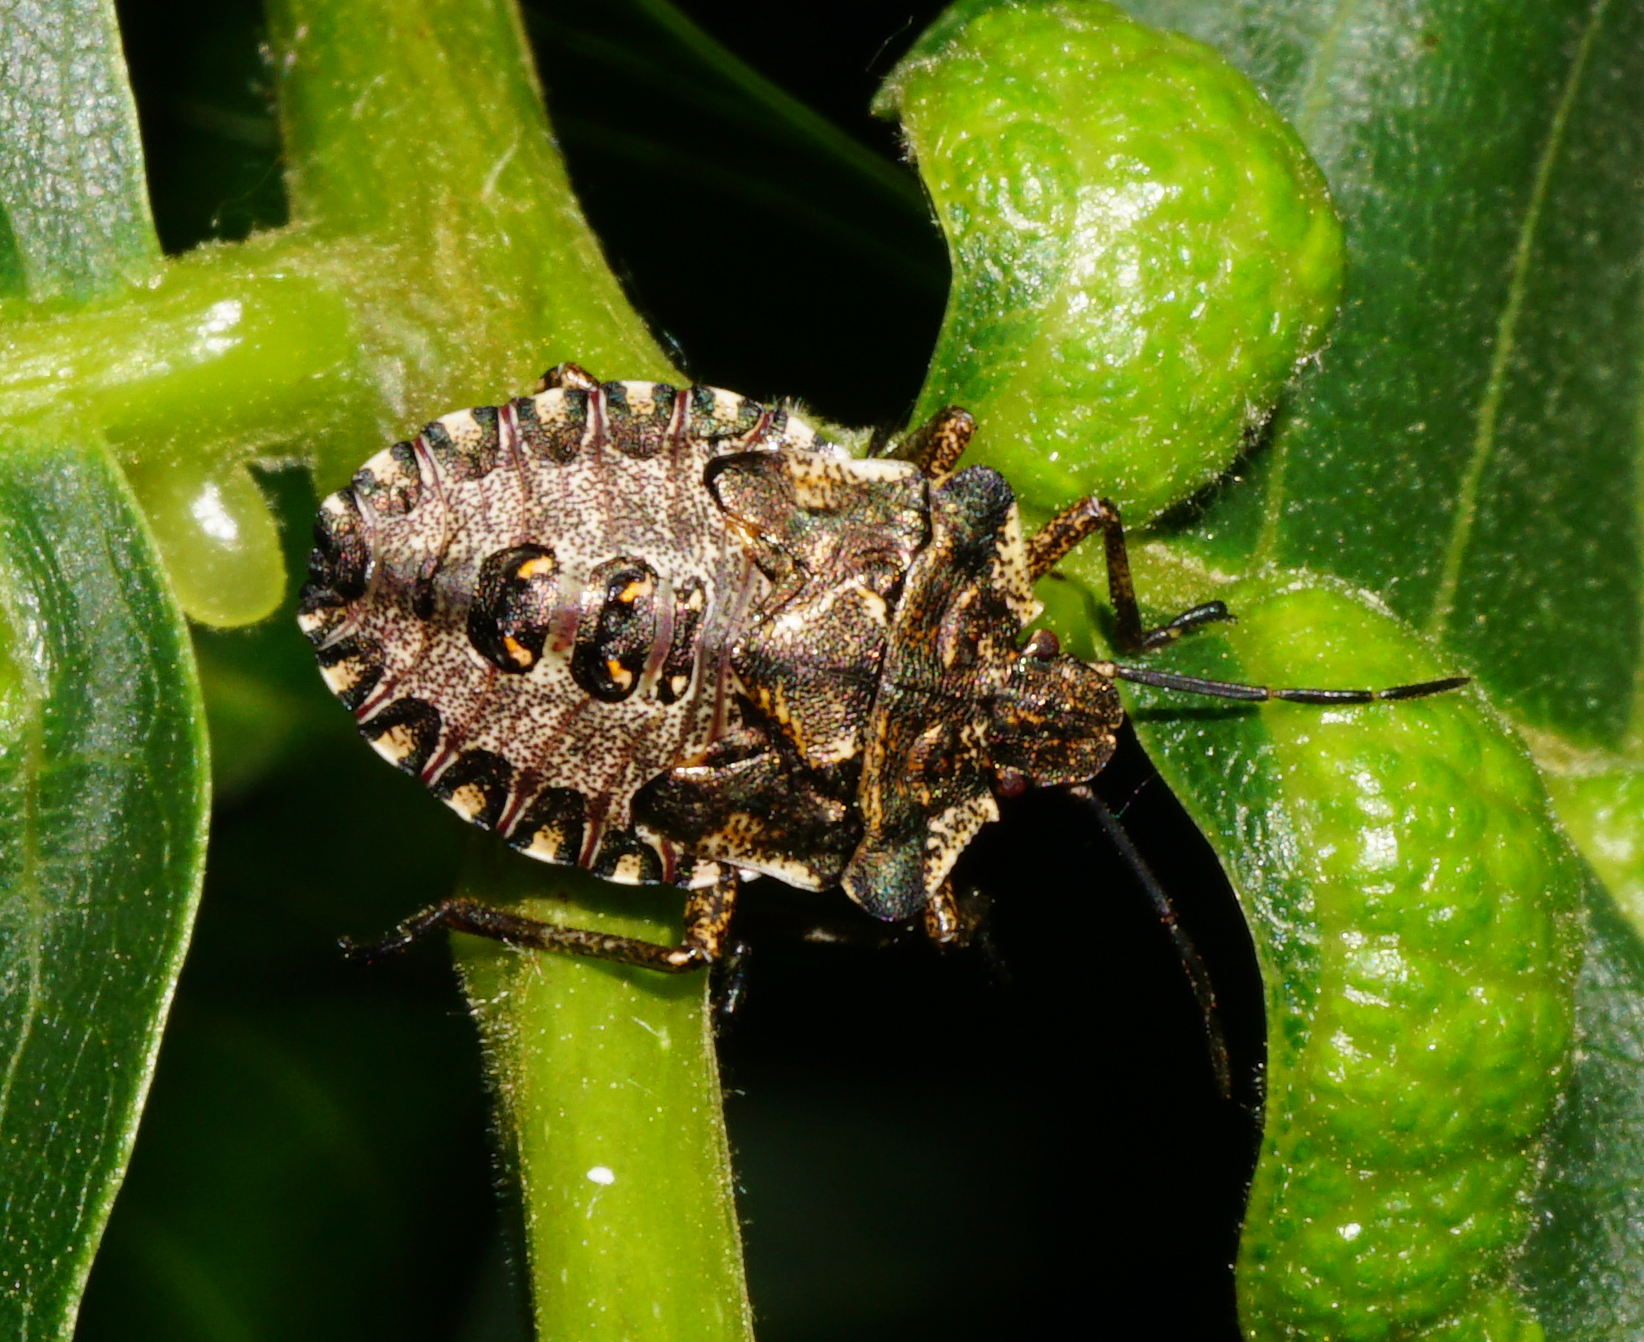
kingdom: Animalia
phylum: Arthropoda
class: Insecta
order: Hemiptera
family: Pentatomidae
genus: Pentatoma
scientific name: Pentatoma rufipes
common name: Forest bug
